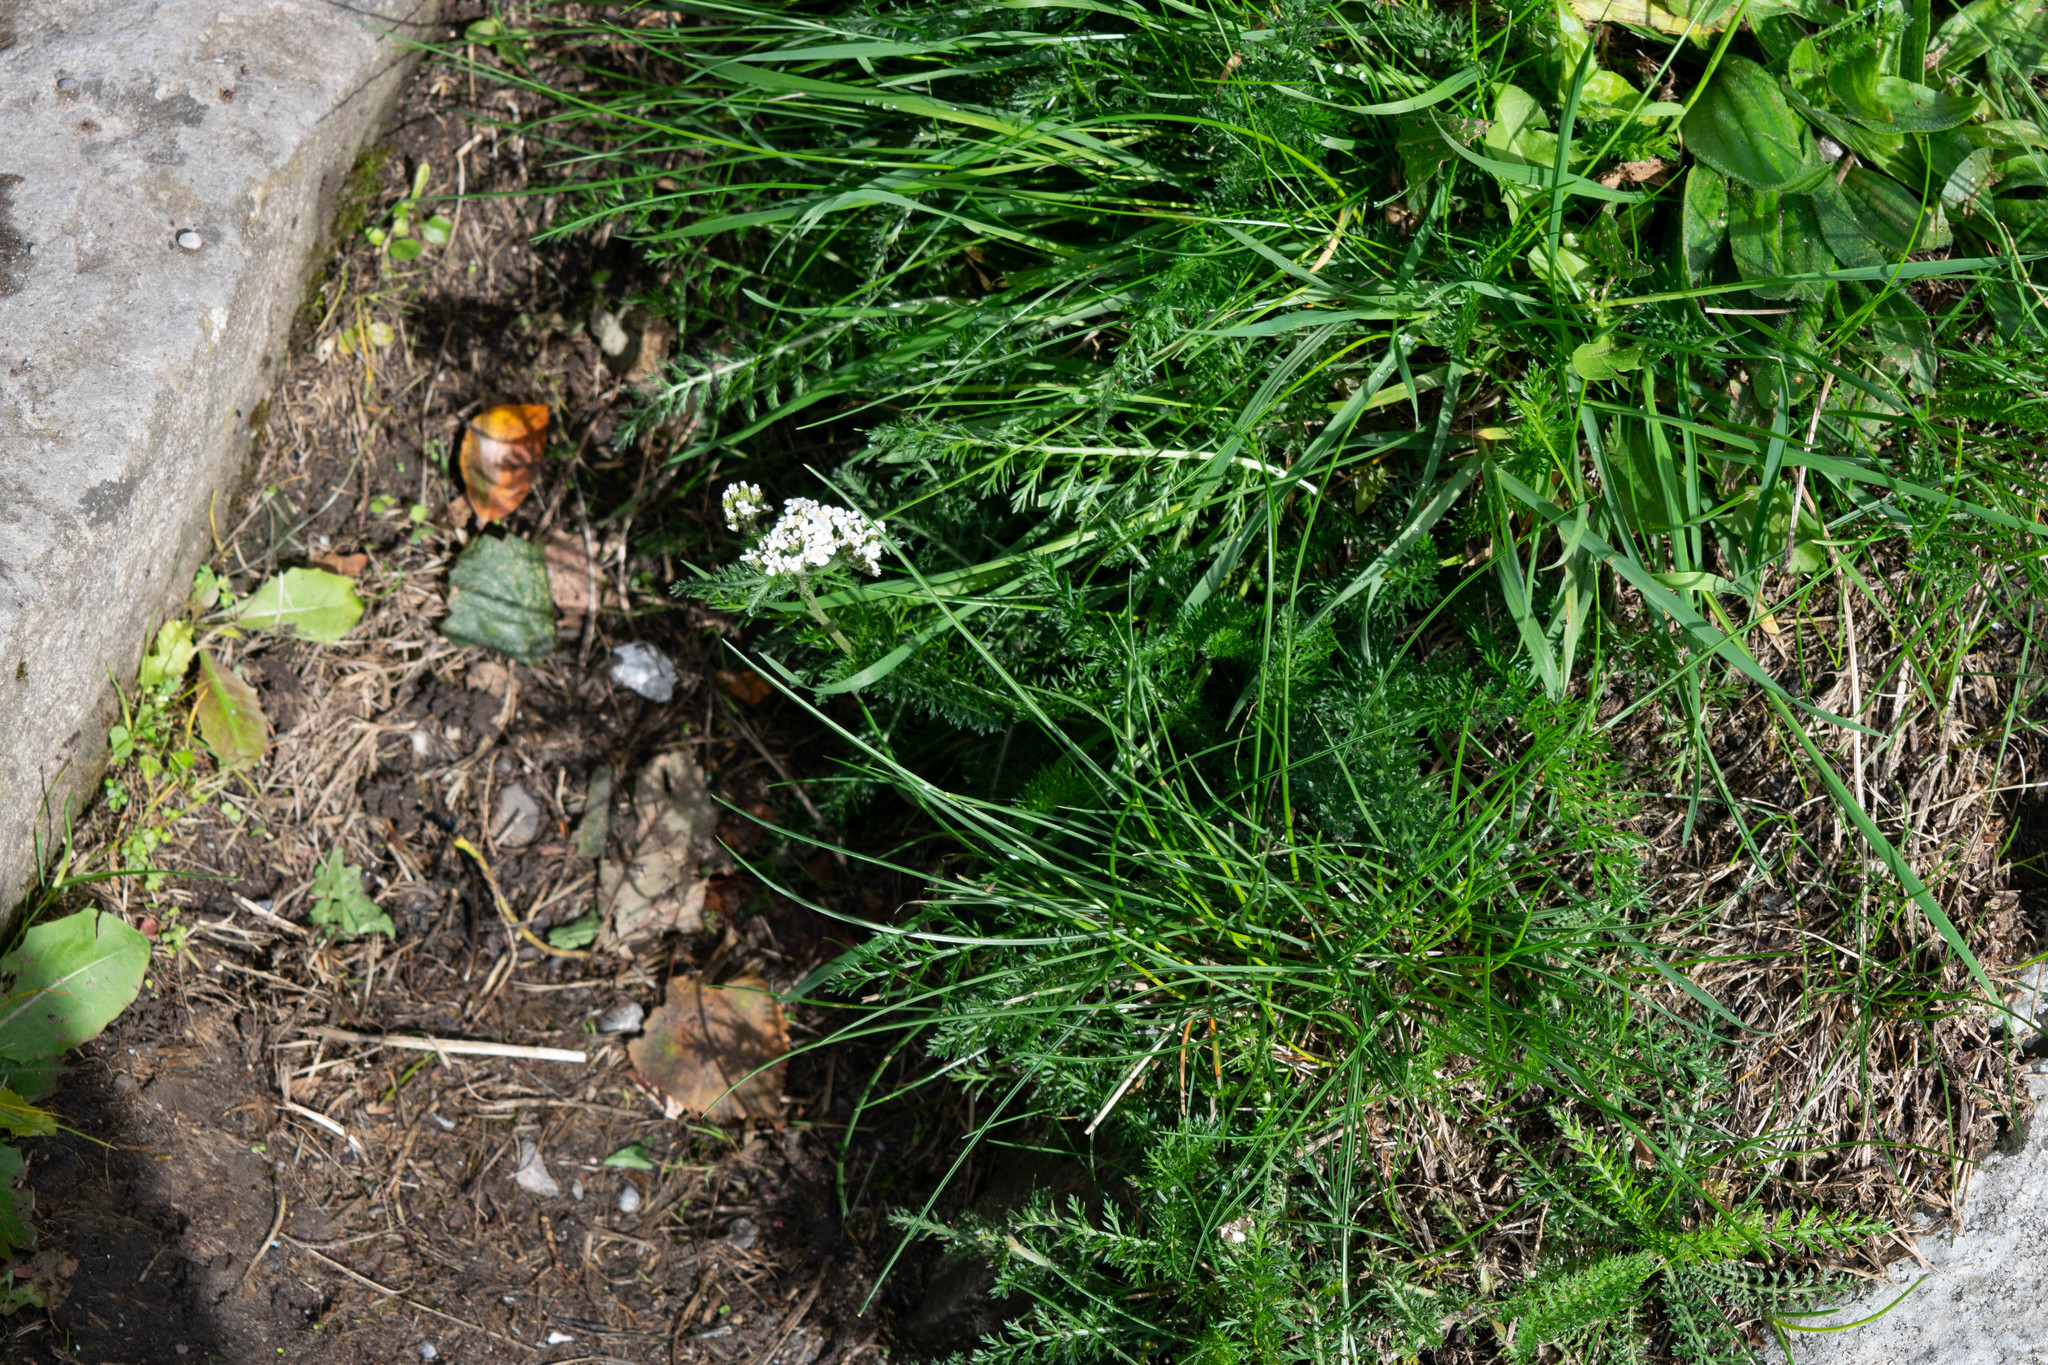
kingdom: Plantae
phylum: Tracheophyta
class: Magnoliopsida
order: Asterales
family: Asteraceae
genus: Achillea
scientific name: Achillea millefolium
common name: Yarrow
